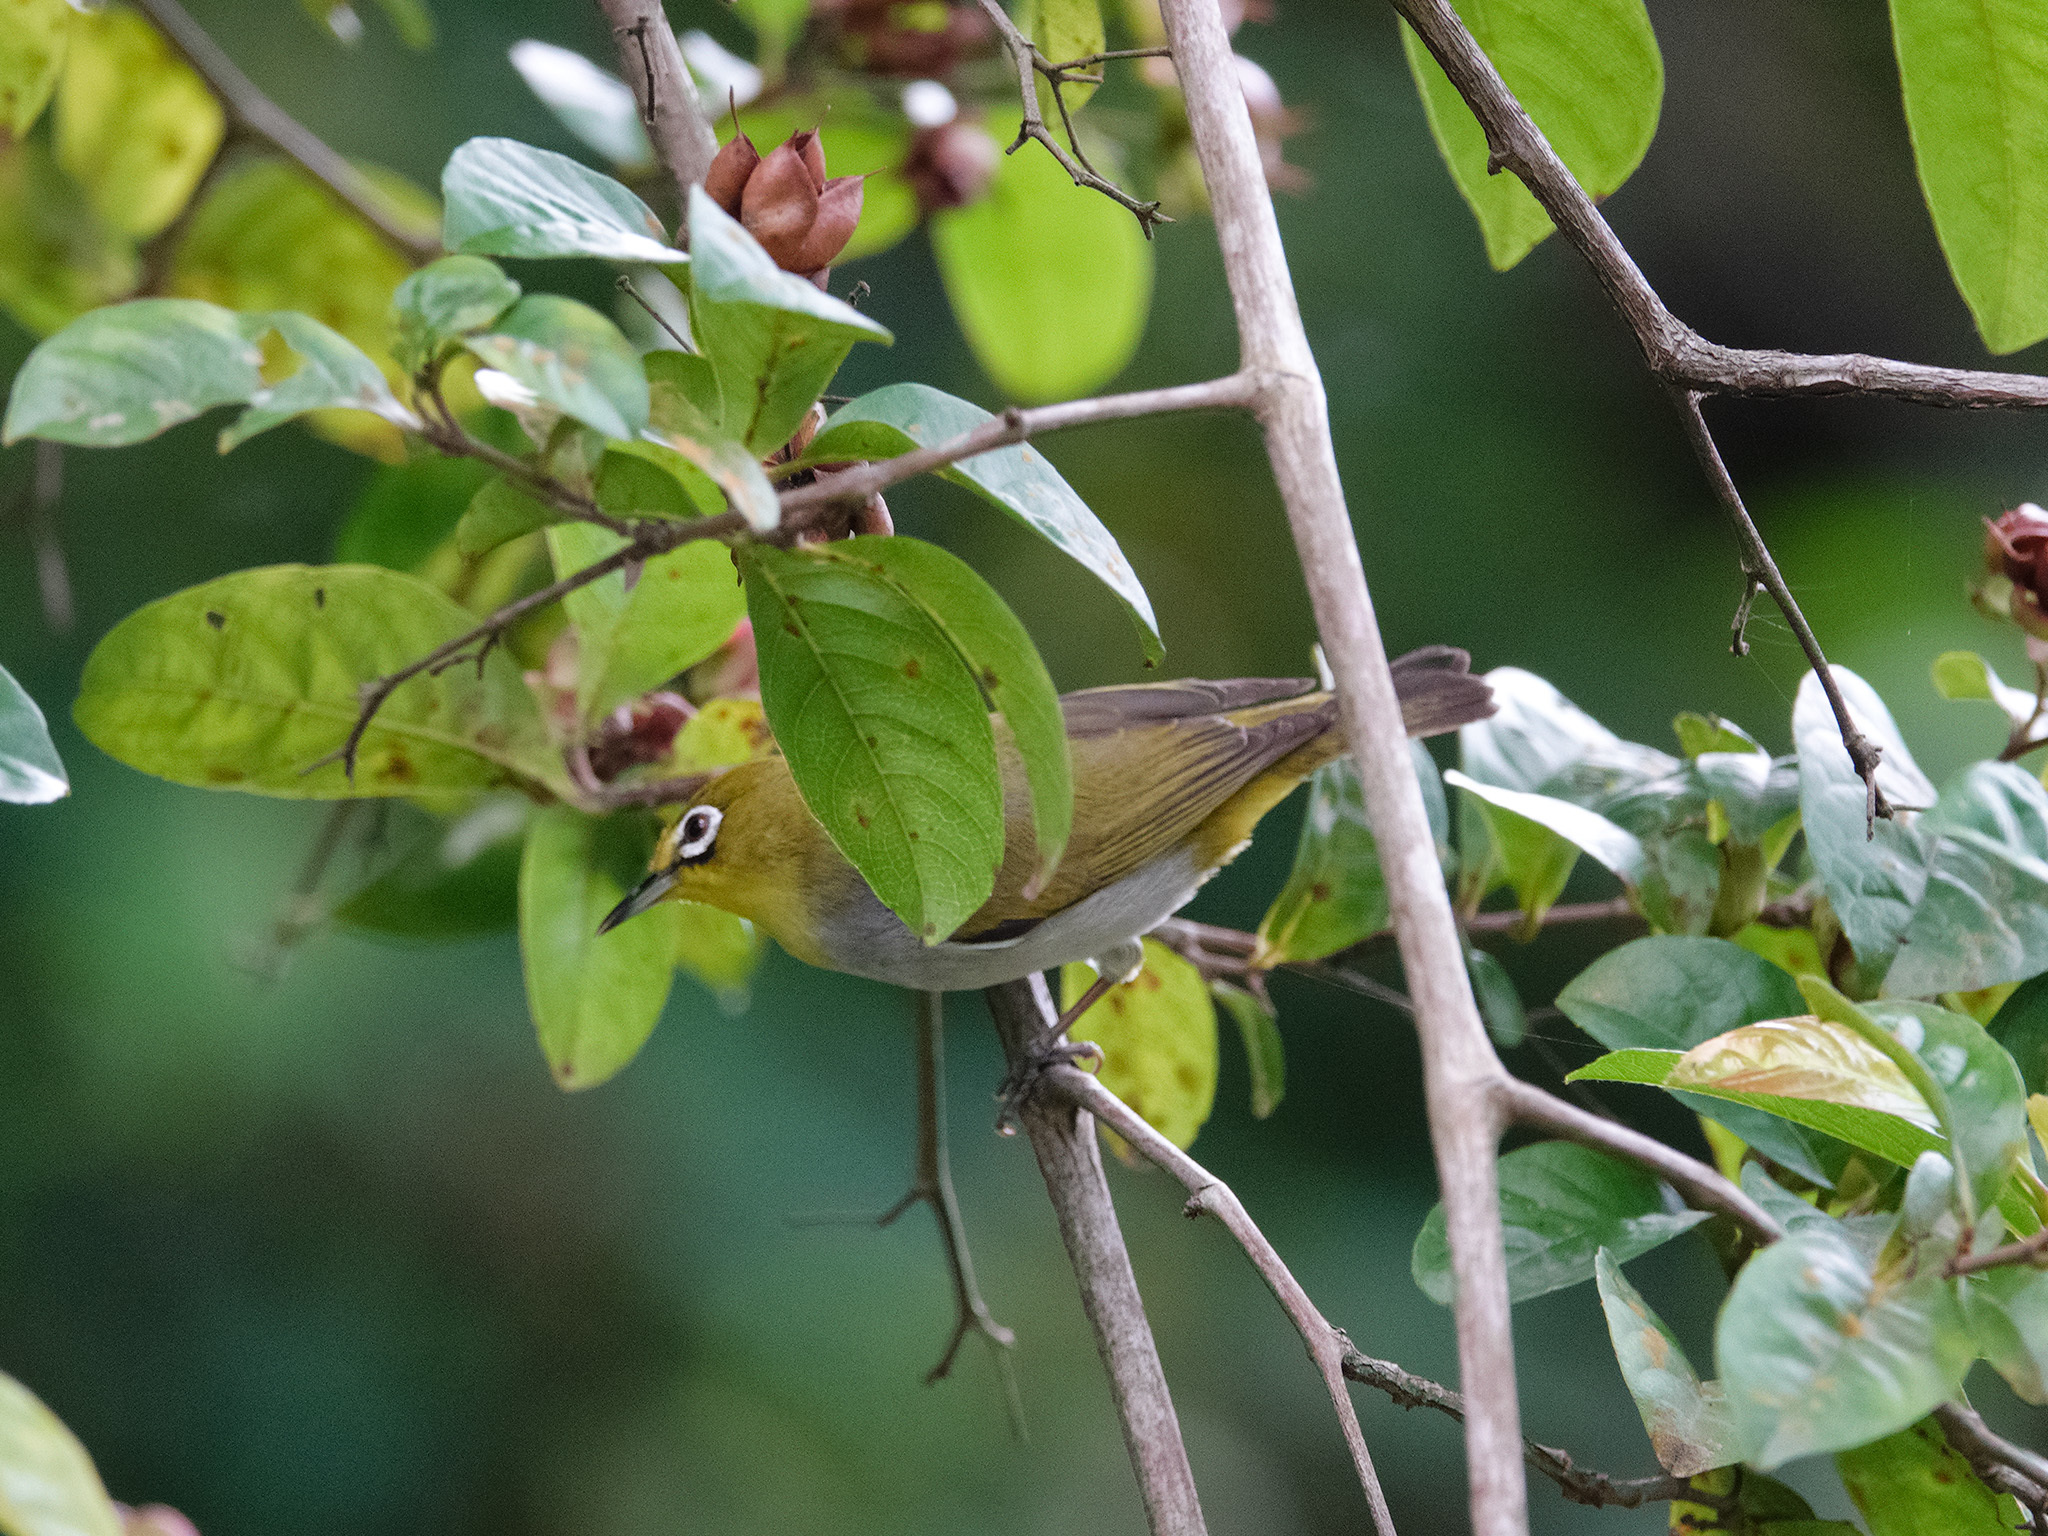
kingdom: Animalia
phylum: Chordata
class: Aves
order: Passeriformes
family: Zosteropidae
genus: Zosterops
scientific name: Zosterops simplex
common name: Swinhoe's white-eye
